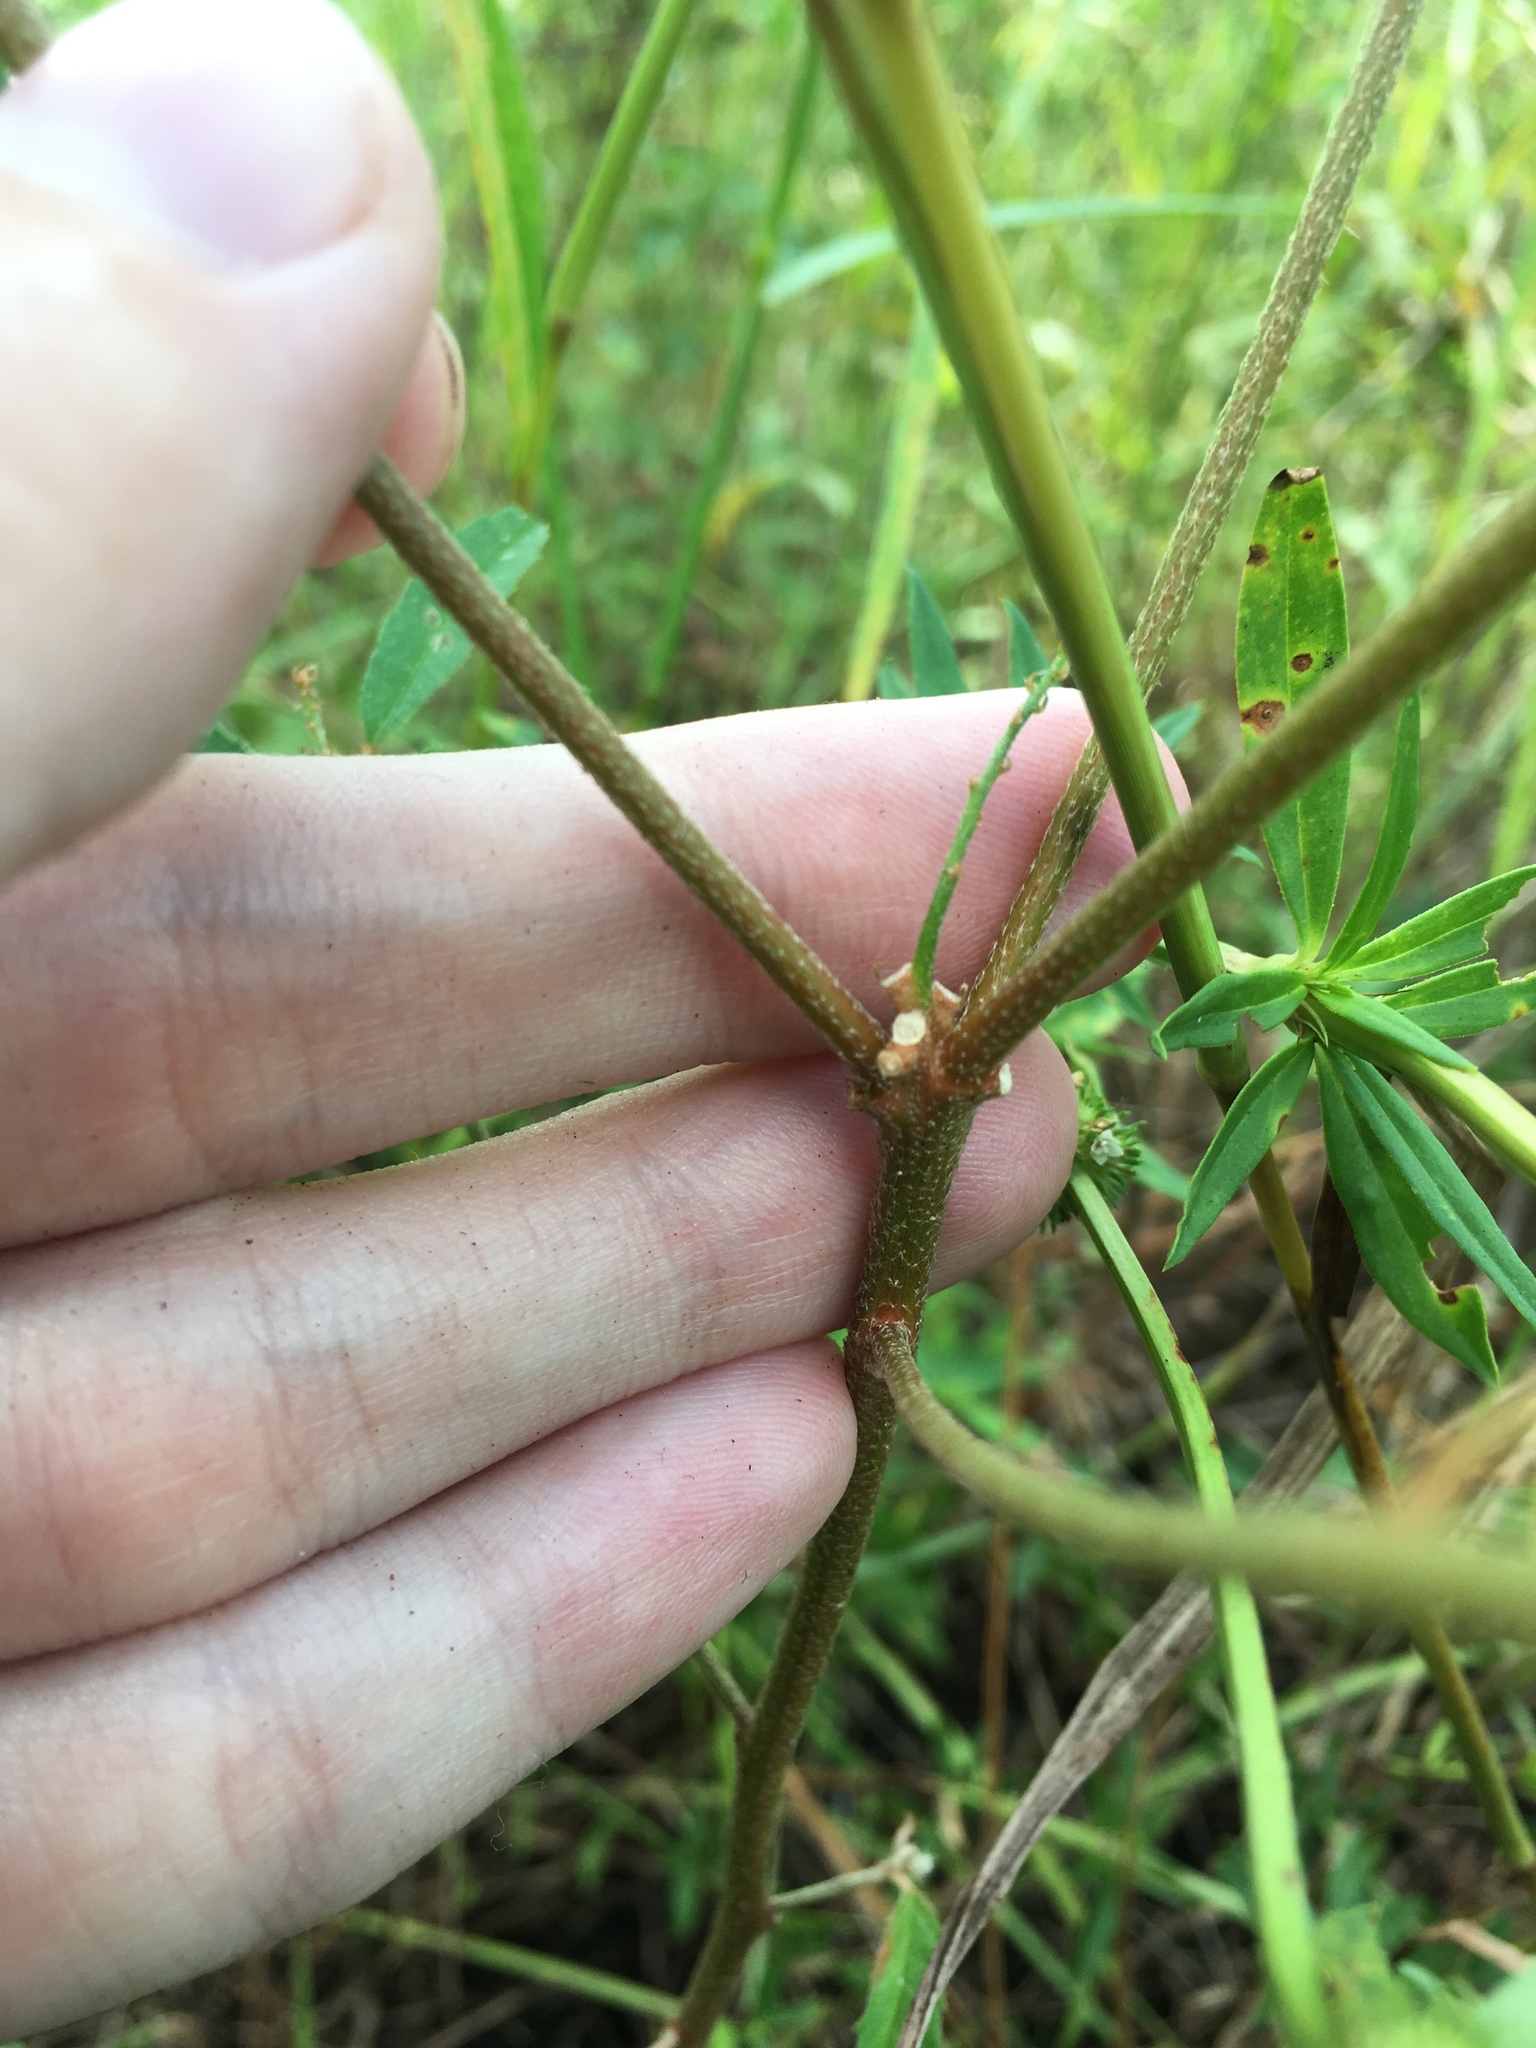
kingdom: Plantae
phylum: Tracheophyta
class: Magnoliopsida
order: Malpighiales
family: Euphorbiaceae
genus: Croton
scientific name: Croton glandulosus
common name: Tropic croton
